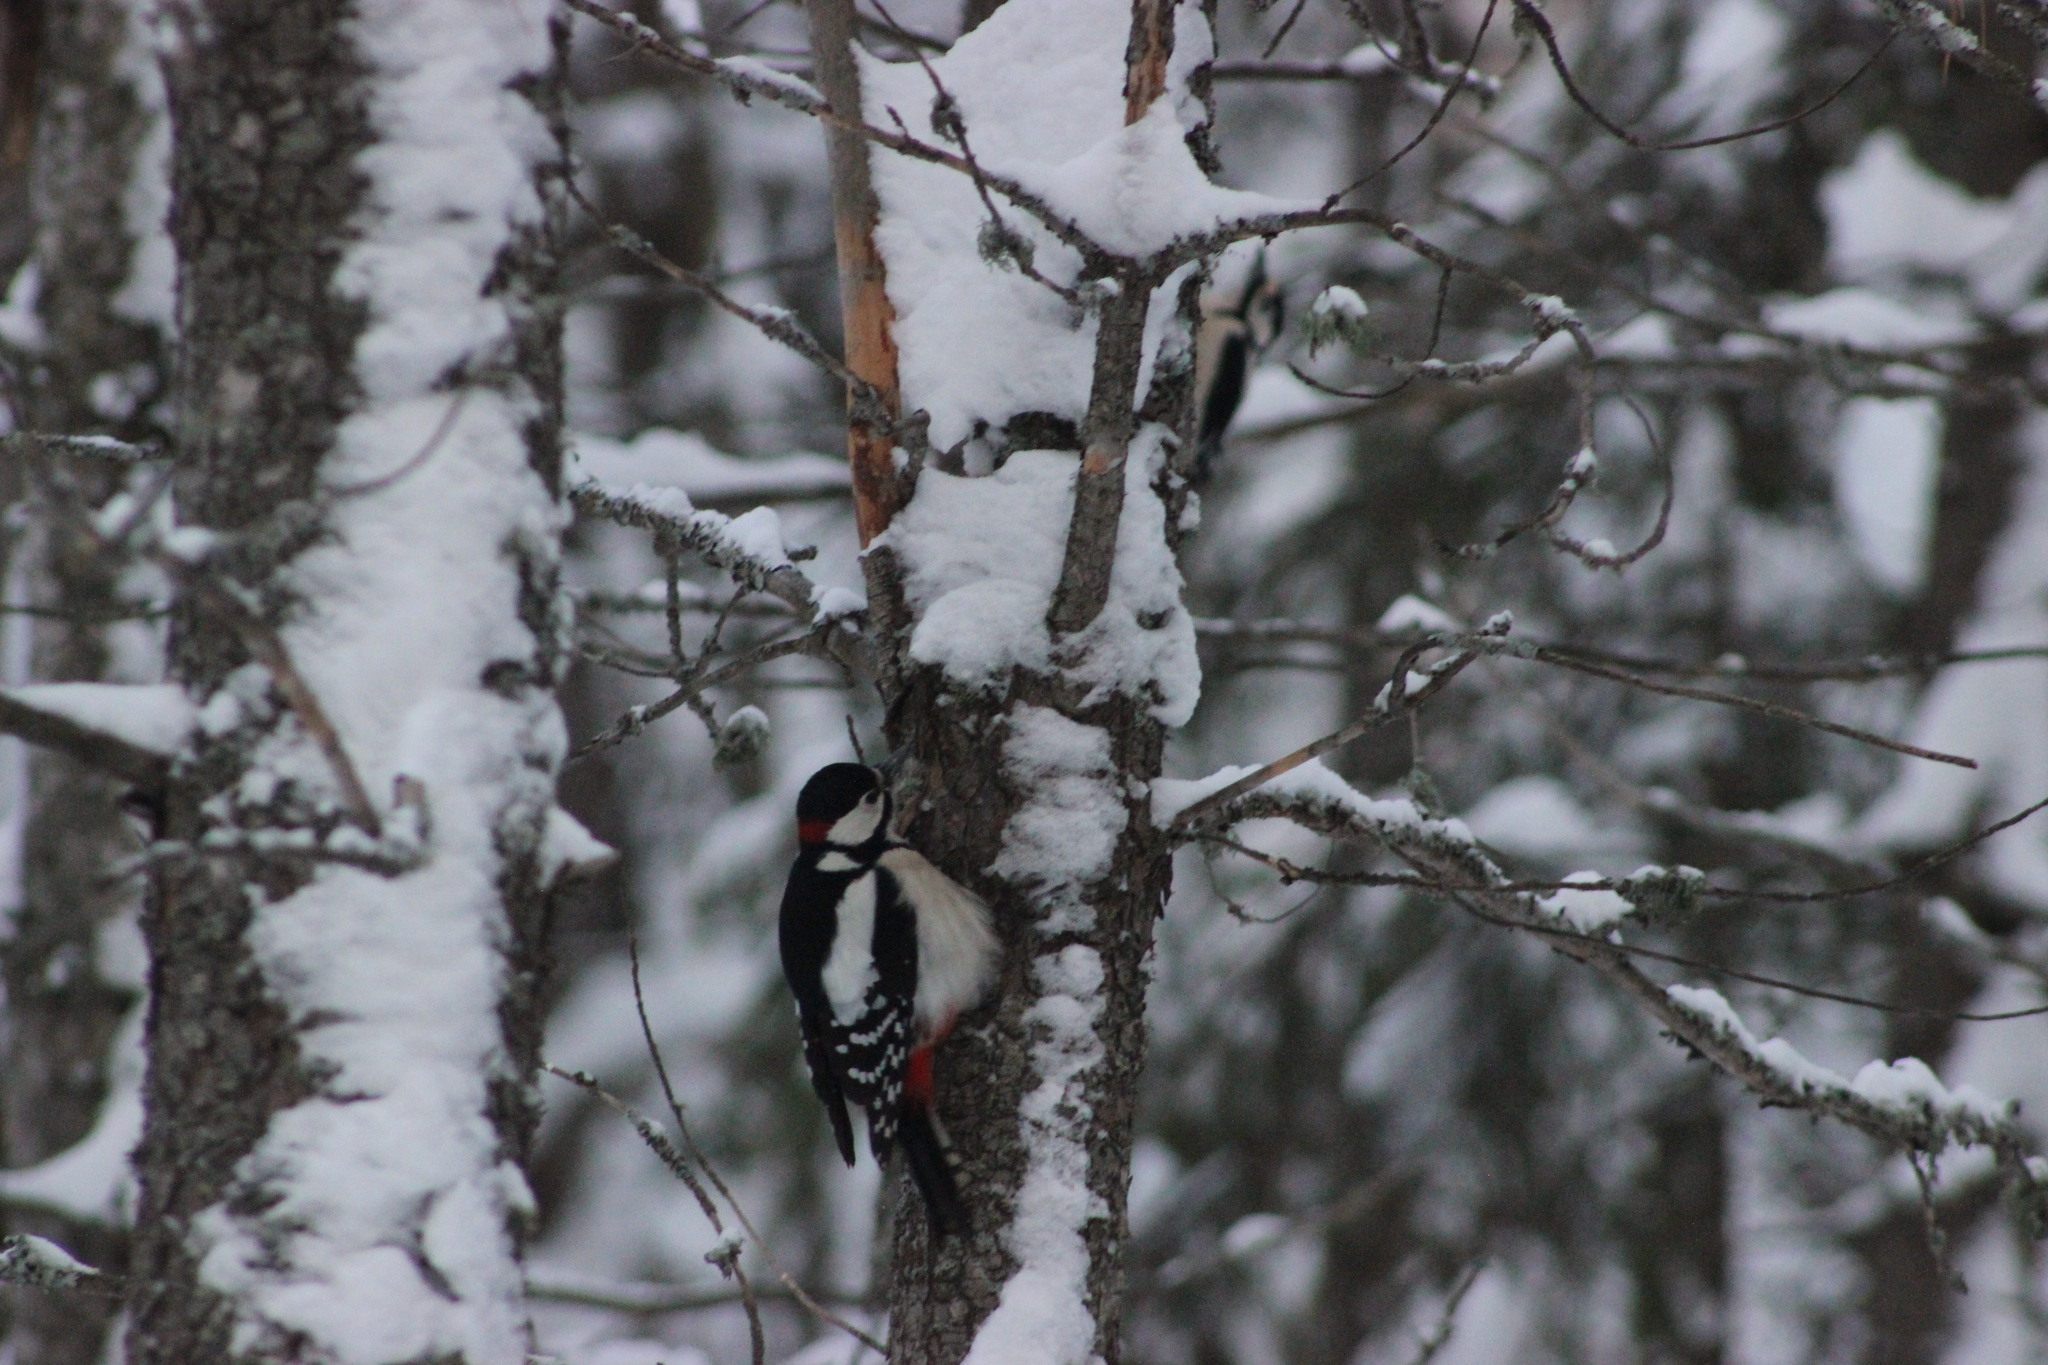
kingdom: Animalia
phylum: Chordata
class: Aves
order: Piciformes
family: Picidae
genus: Dendrocopos
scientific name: Dendrocopos major
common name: Great spotted woodpecker
